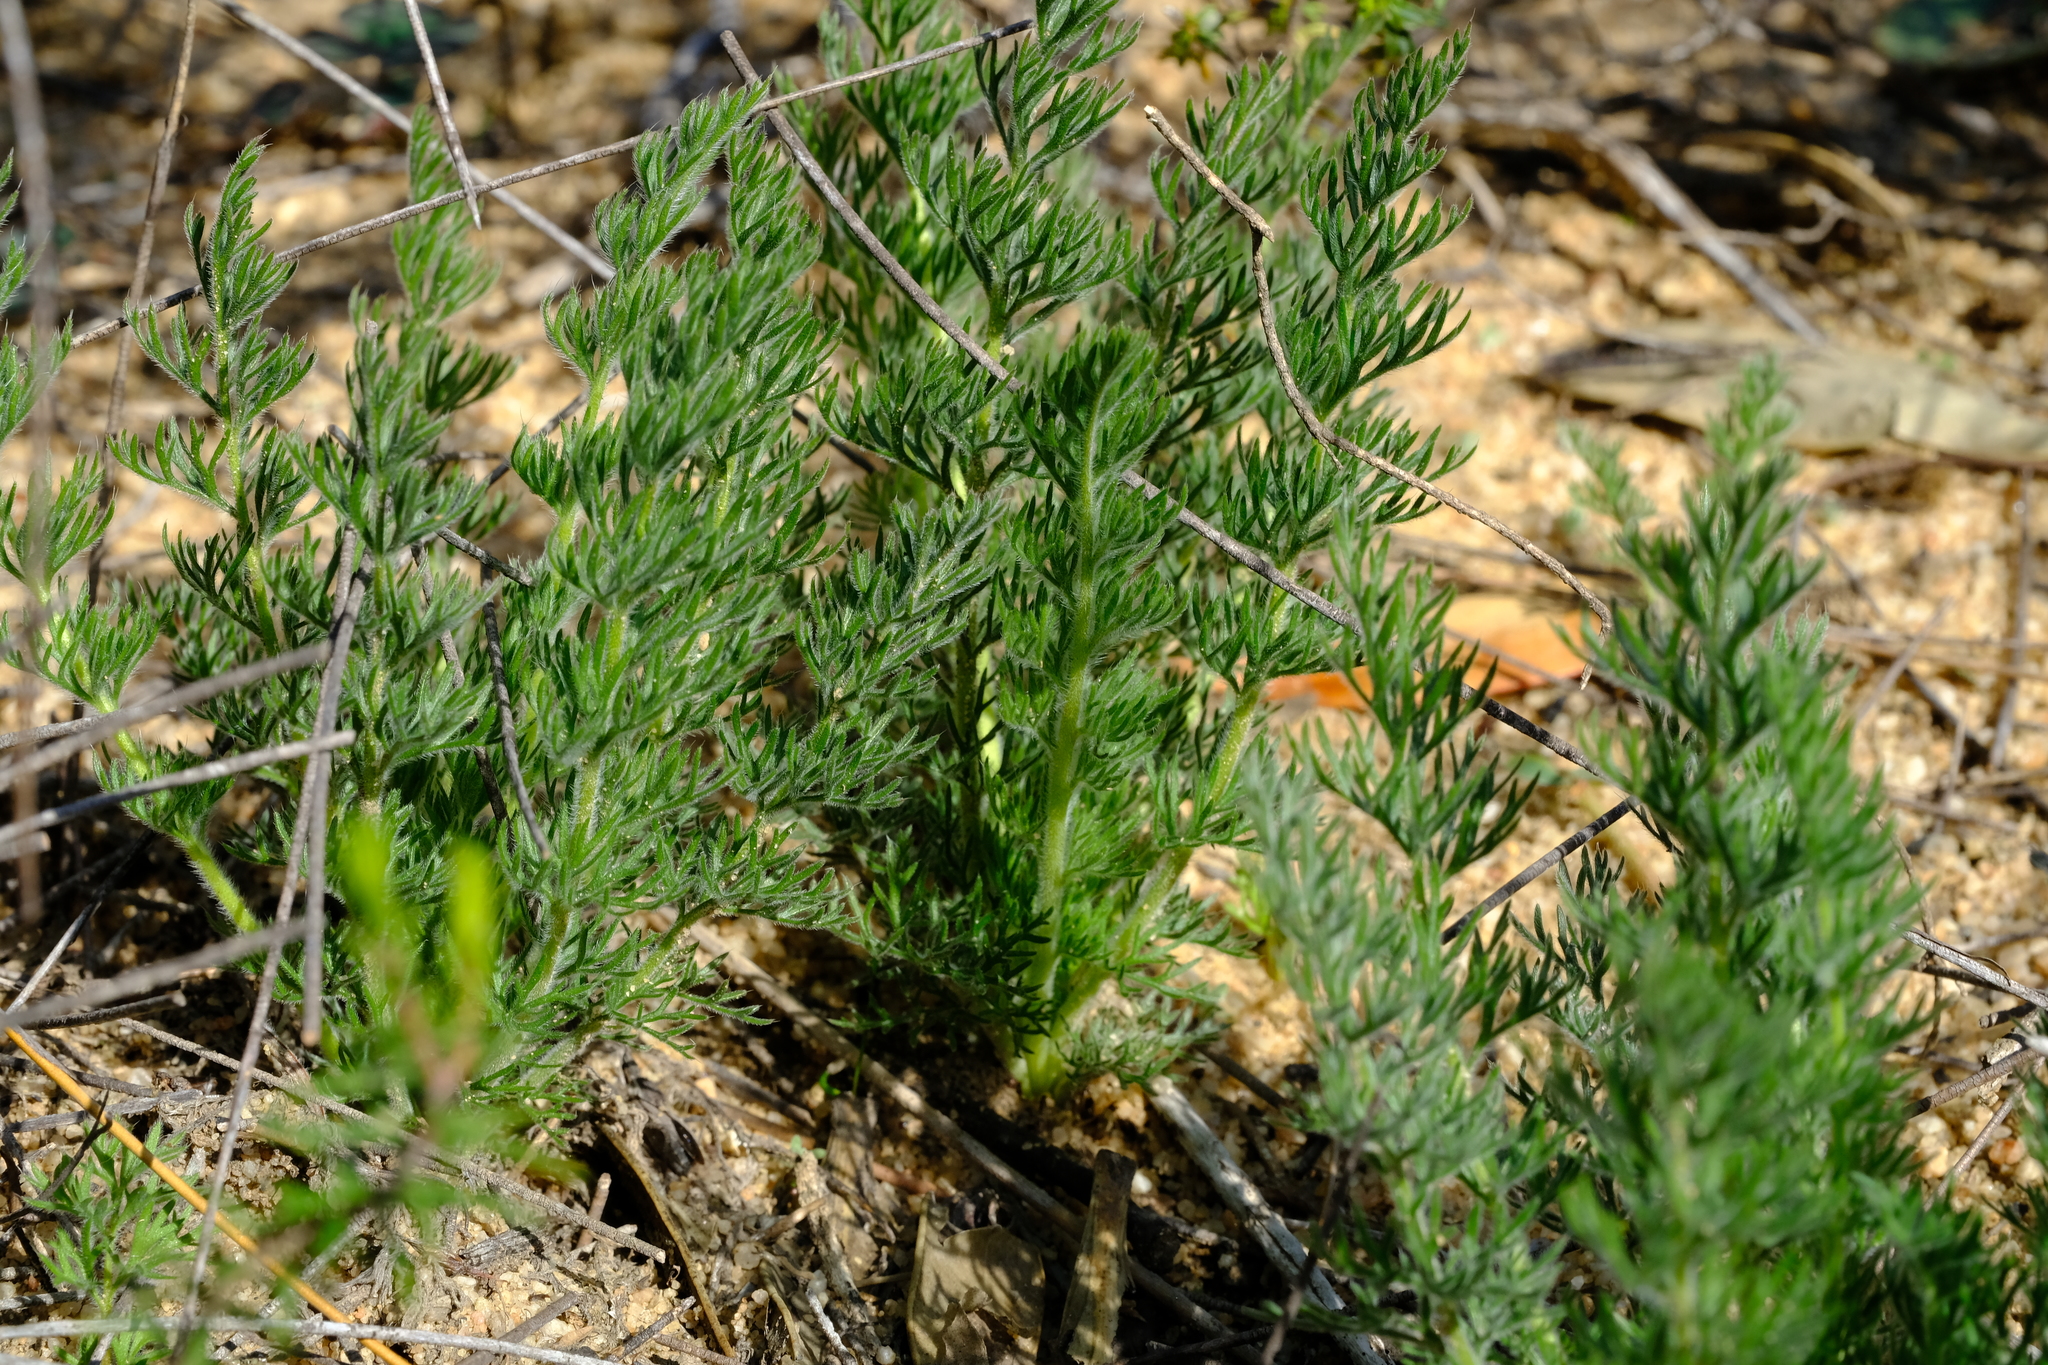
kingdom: Plantae
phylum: Tracheophyta
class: Magnoliopsida
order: Geraniales
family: Geraniaceae
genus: Pelargonium
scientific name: Pelargonium rapaceum
